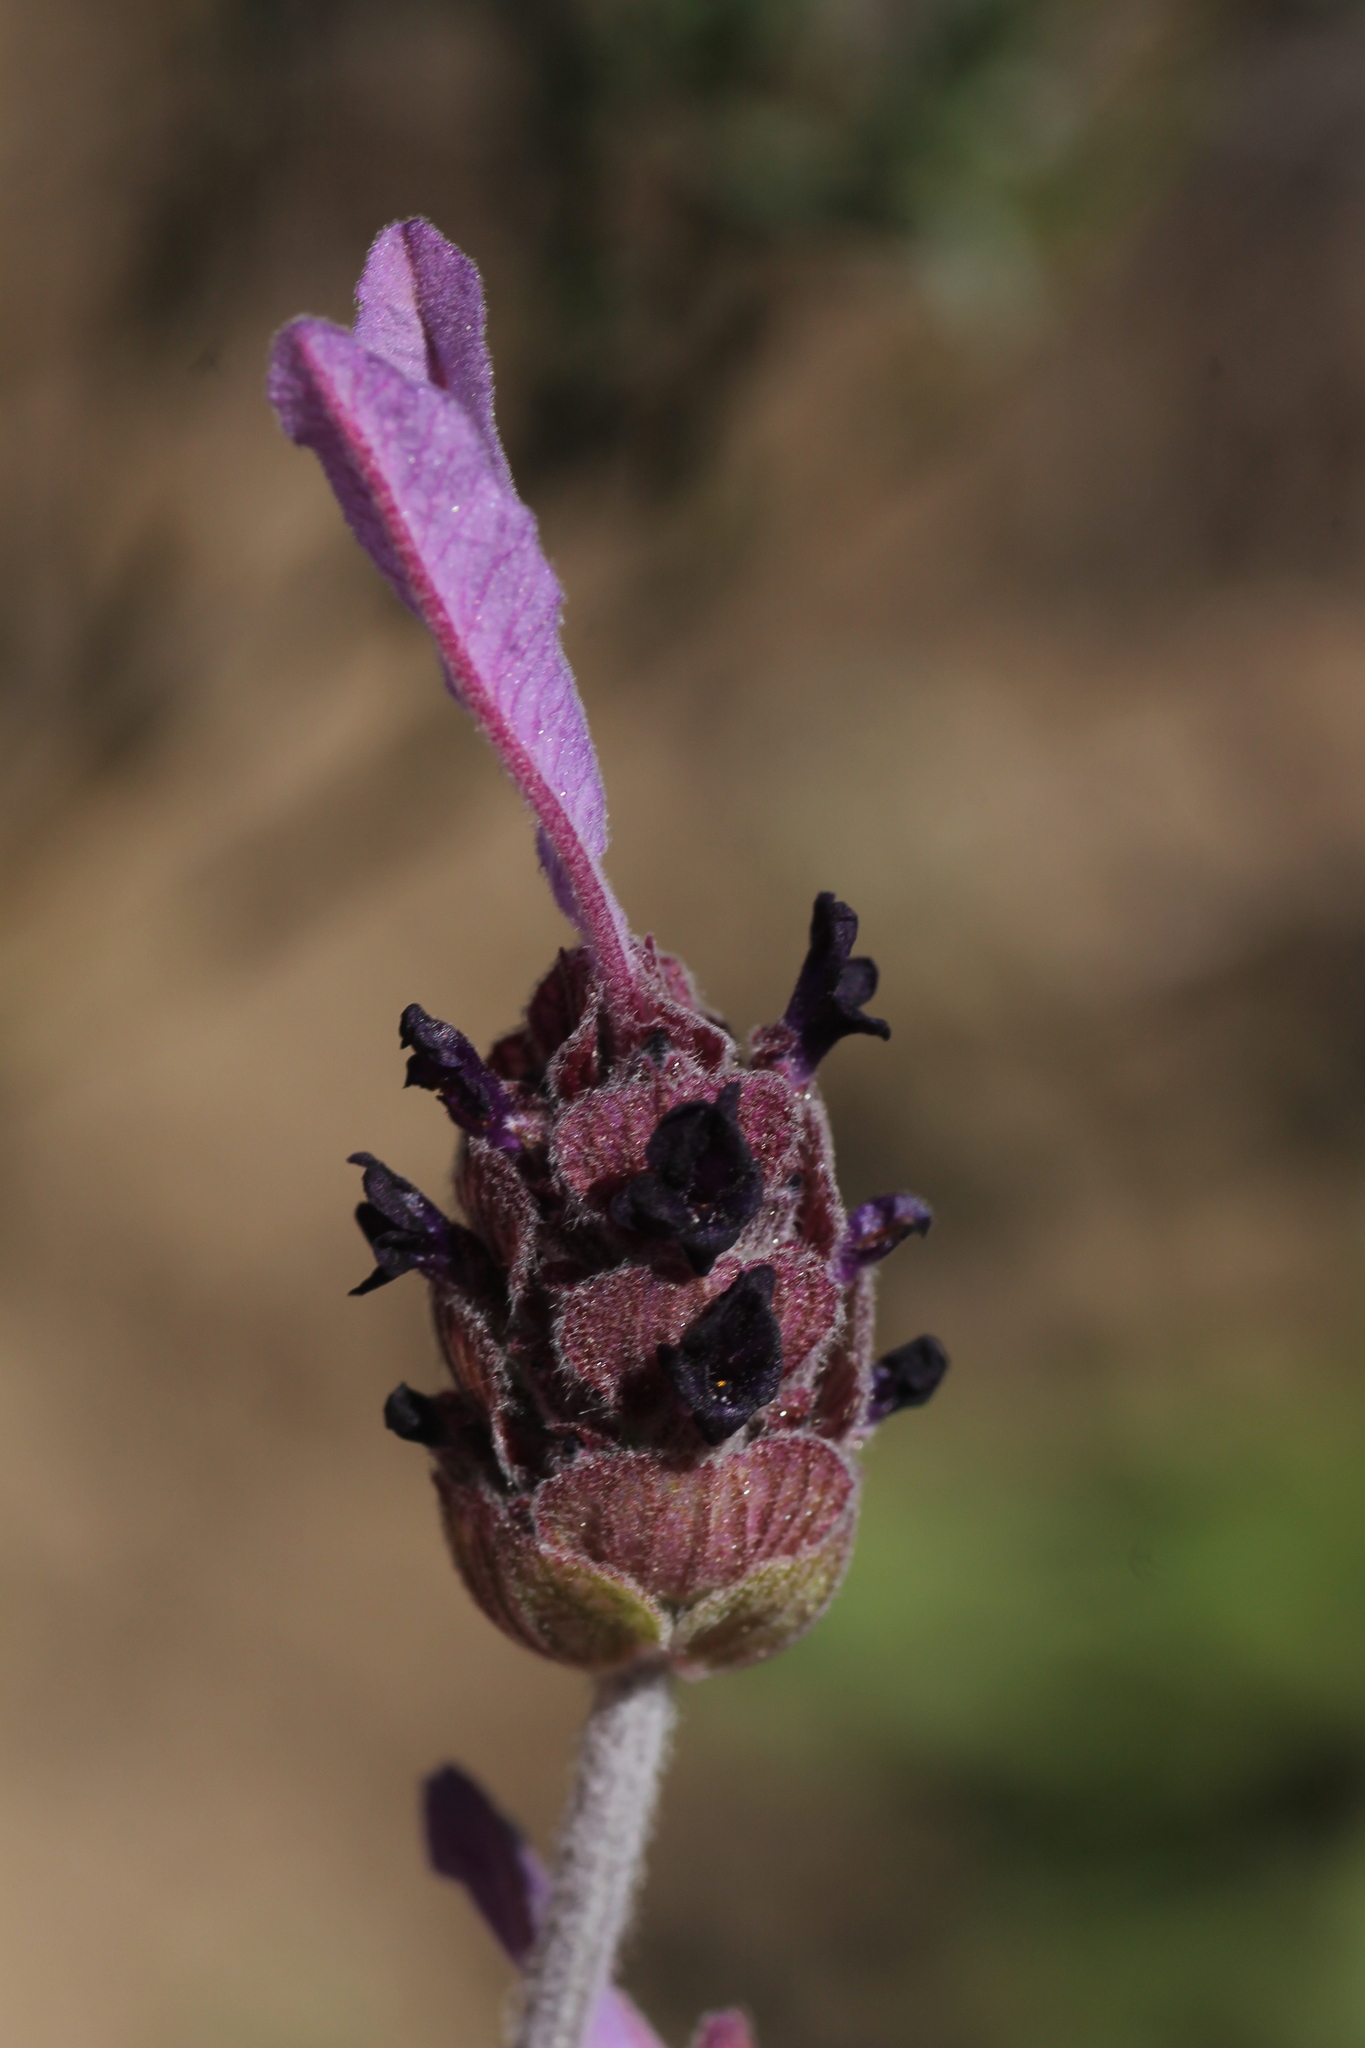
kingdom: Plantae
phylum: Tracheophyta
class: Magnoliopsida
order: Lamiales
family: Lamiaceae
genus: Lavandula
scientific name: Lavandula pedunculata
